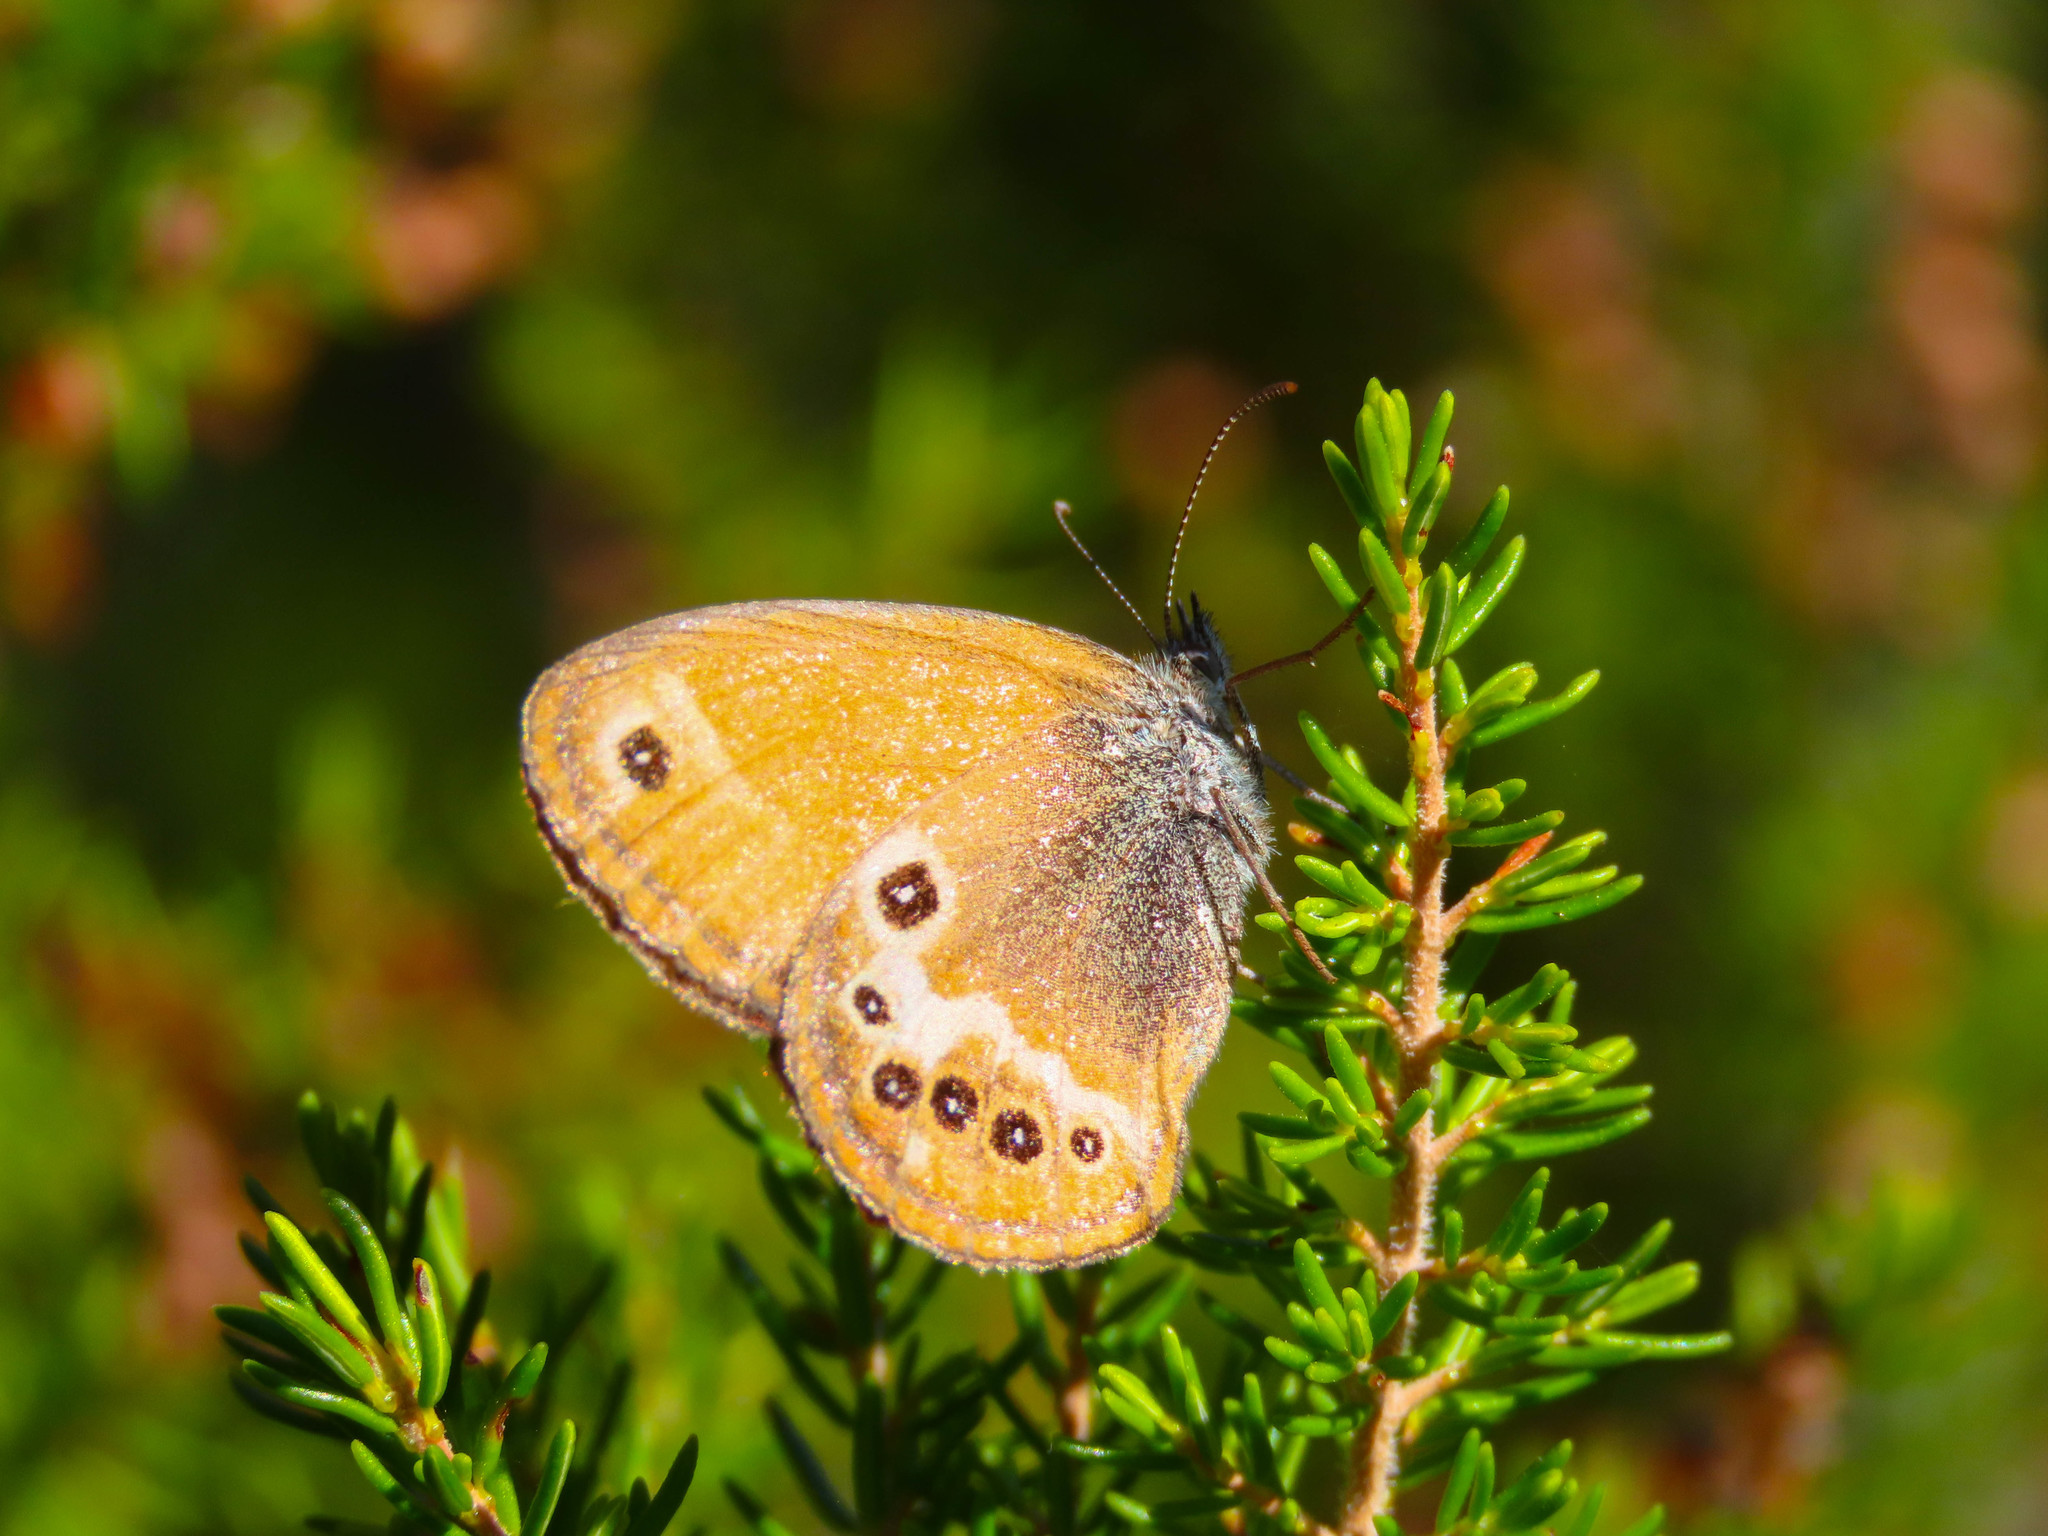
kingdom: Animalia
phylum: Arthropoda
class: Insecta
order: Lepidoptera
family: Nymphalidae
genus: Coenonympha
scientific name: Coenonympha corinna
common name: Corsican heath
